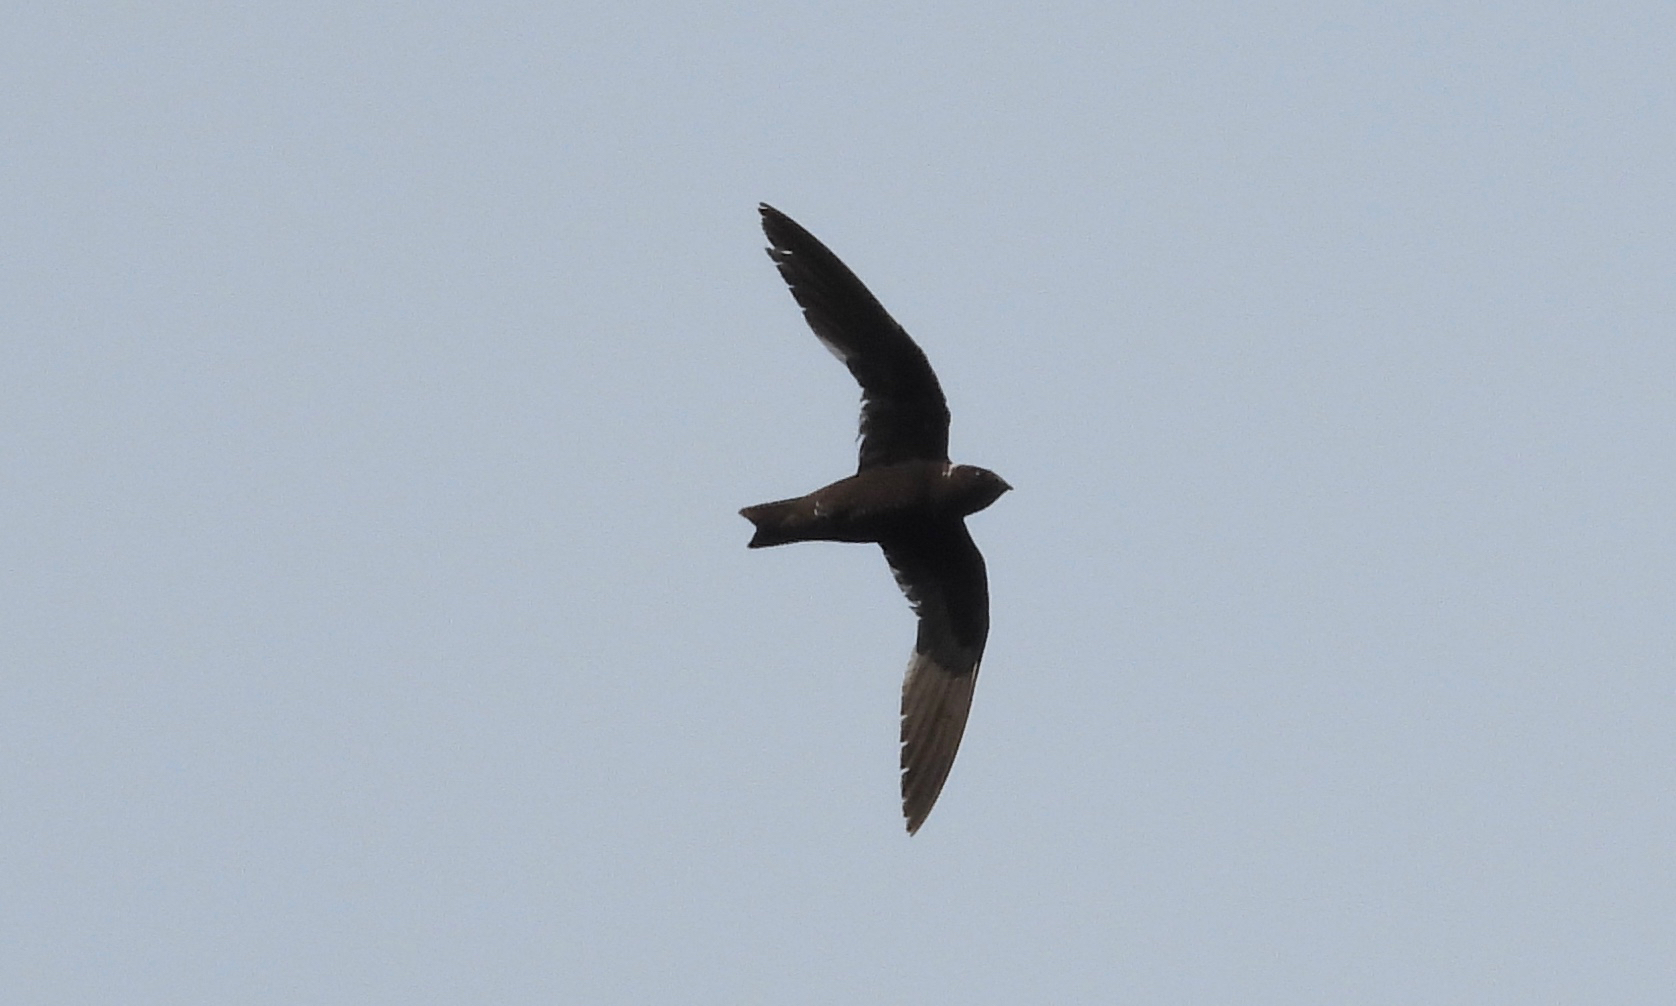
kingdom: Animalia
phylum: Chordata
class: Aves
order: Apodiformes
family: Apodidae
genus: Streptoprocne
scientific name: Streptoprocne zonaris
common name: White-collared swift
